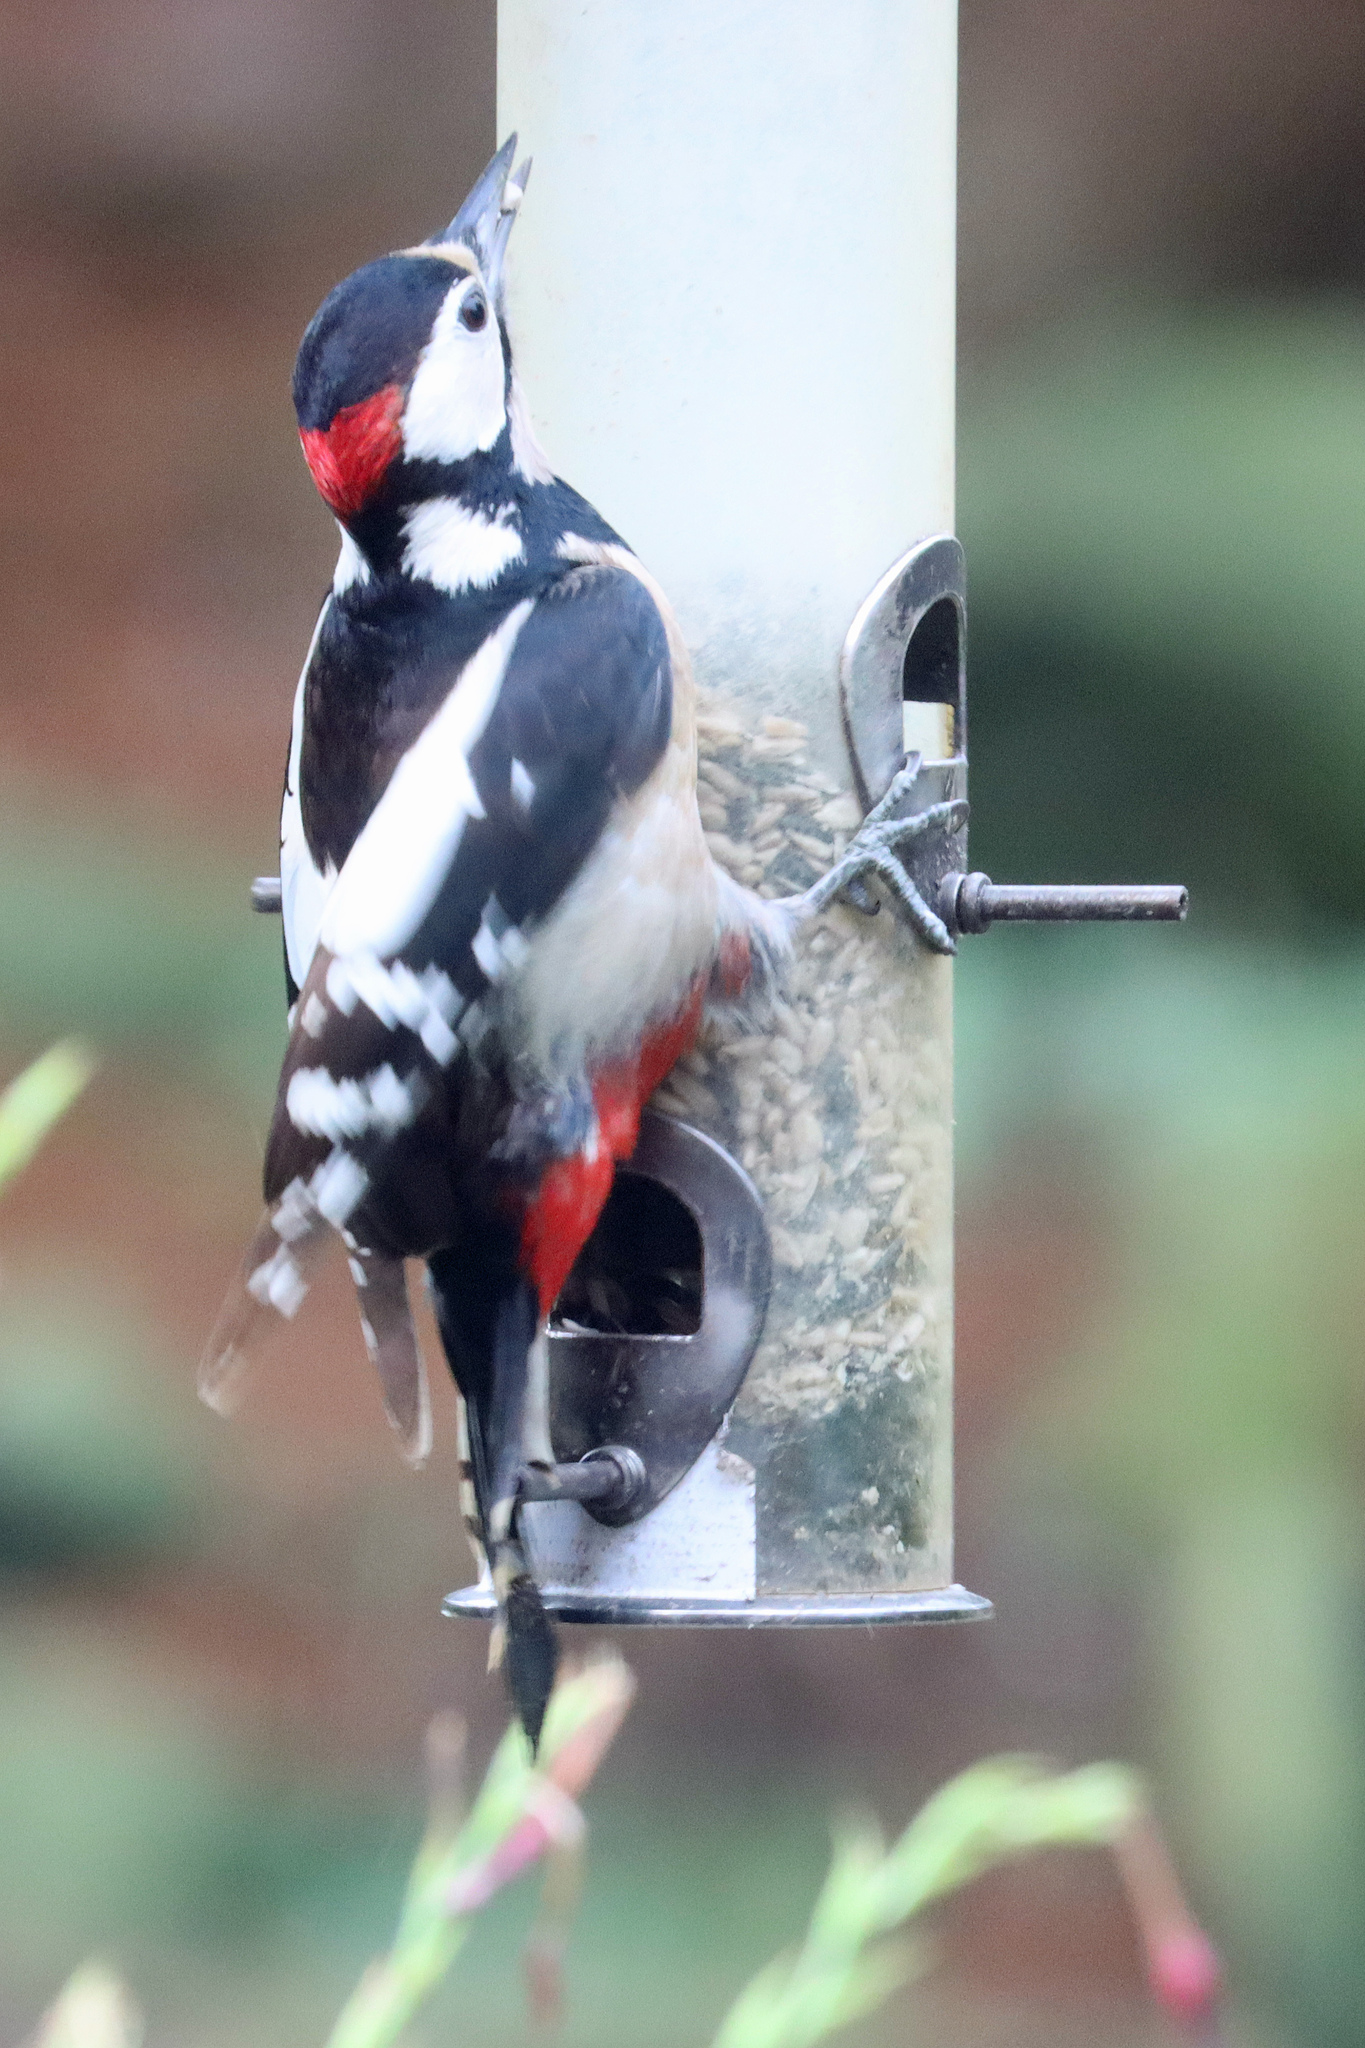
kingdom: Animalia
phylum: Chordata
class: Aves
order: Piciformes
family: Picidae
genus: Dendrocopos
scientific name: Dendrocopos major
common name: Great spotted woodpecker
